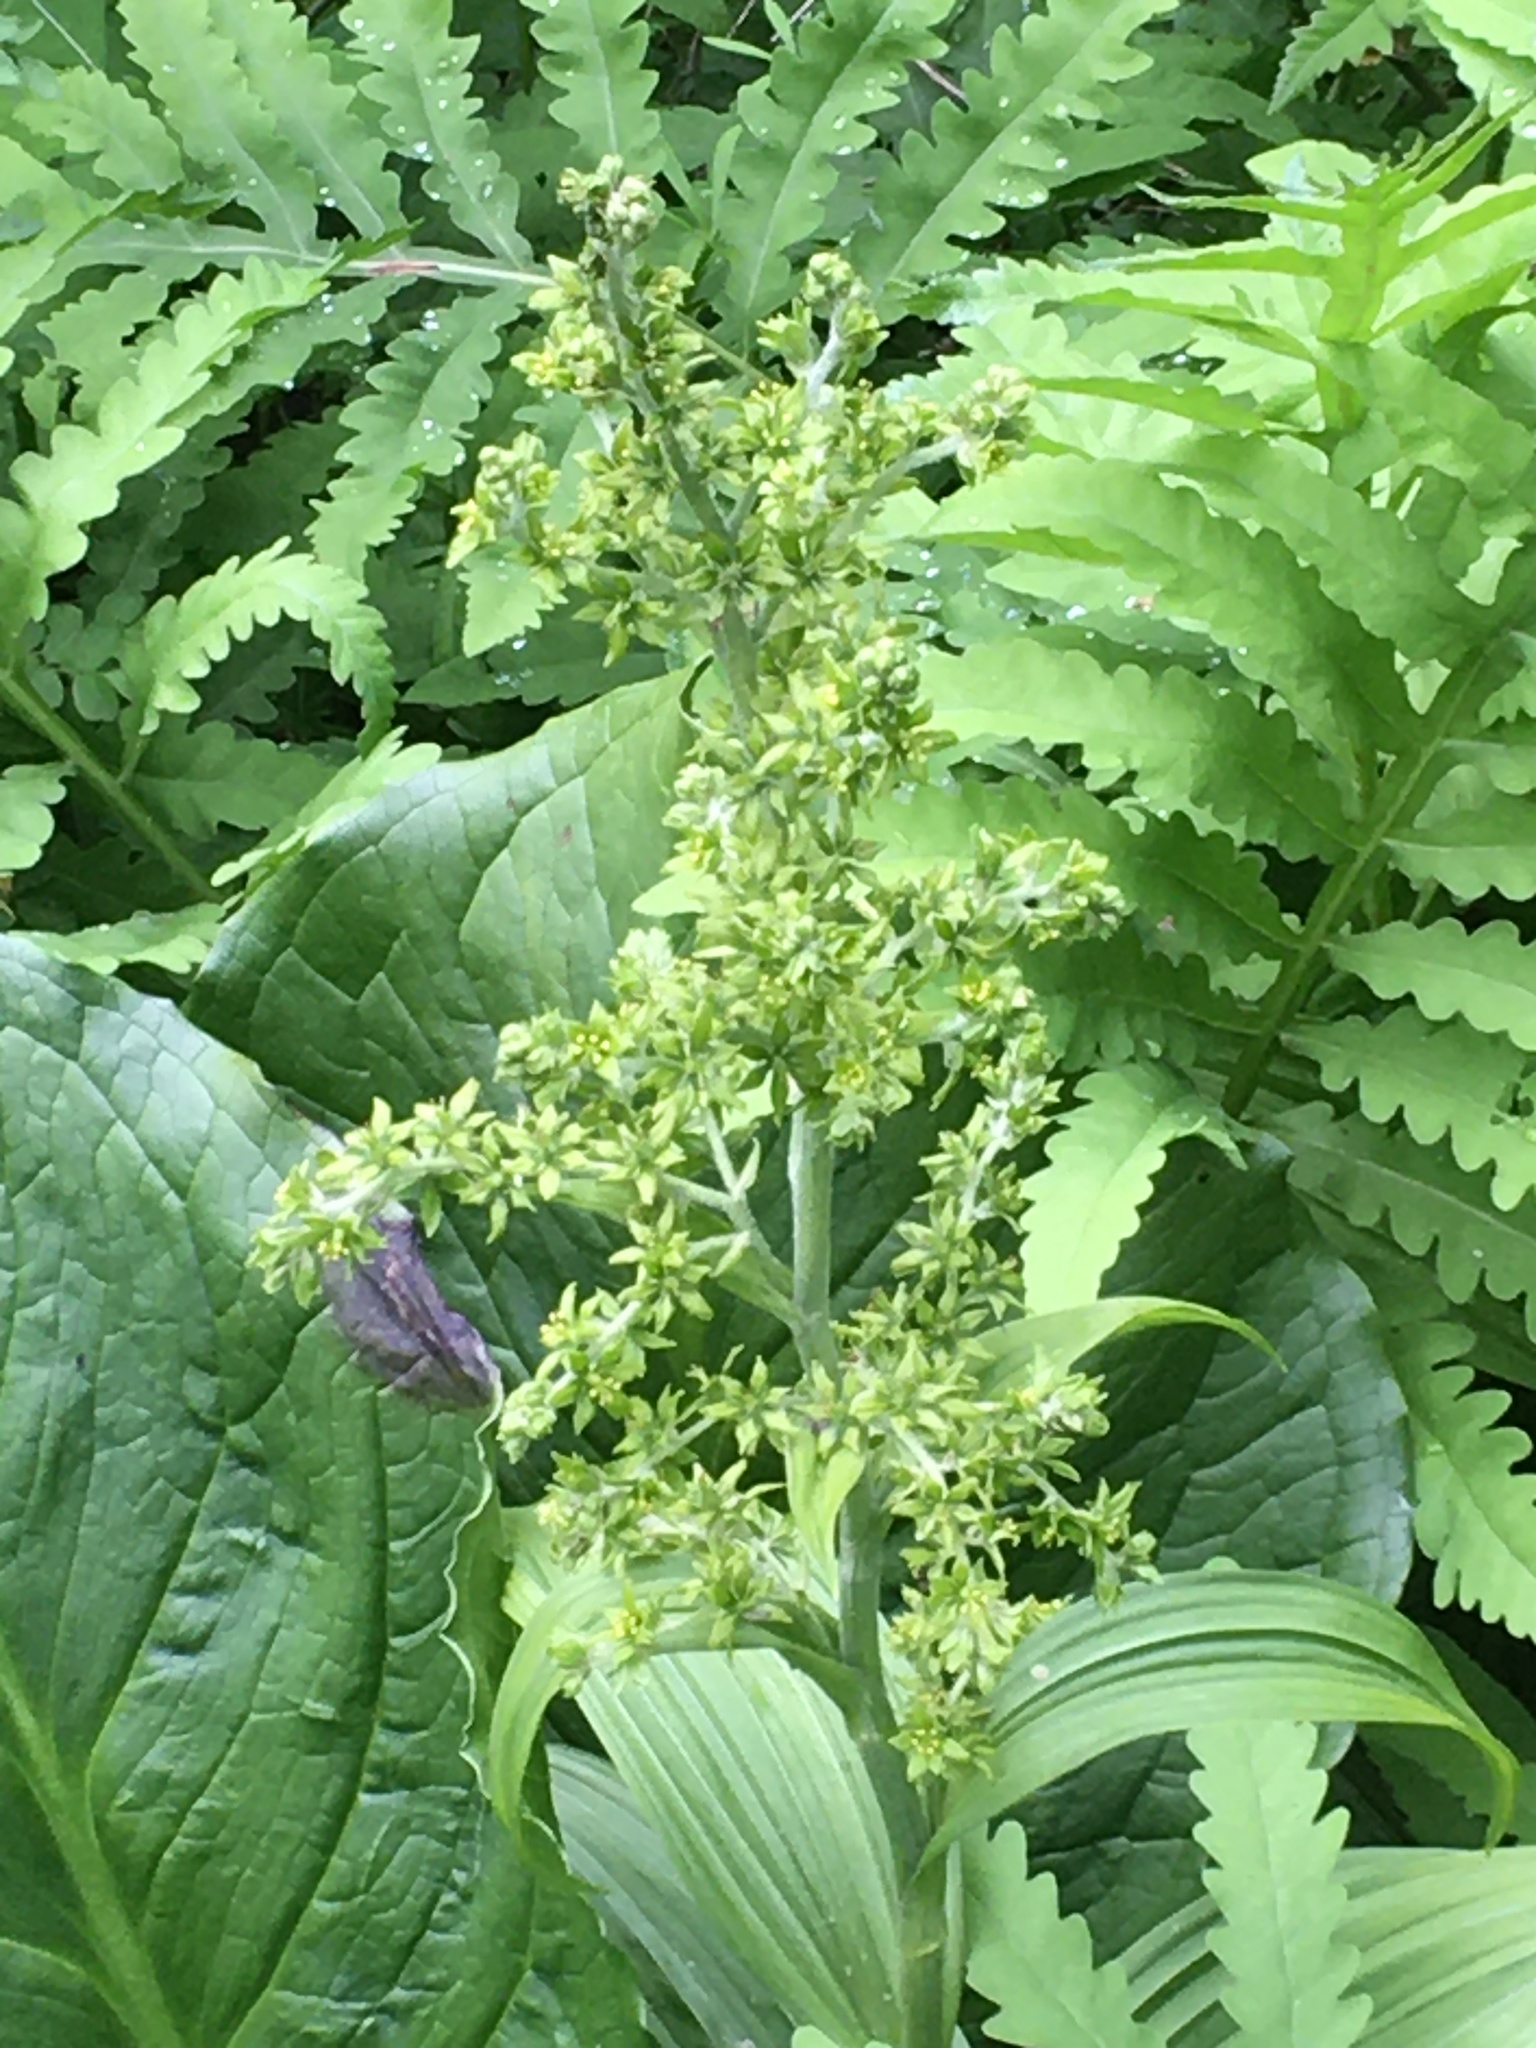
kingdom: Plantae
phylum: Tracheophyta
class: Liliopsida
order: Liliales
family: Melanthiaceae
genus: Veratrum
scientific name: Veratrum viride
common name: American false hellebore
